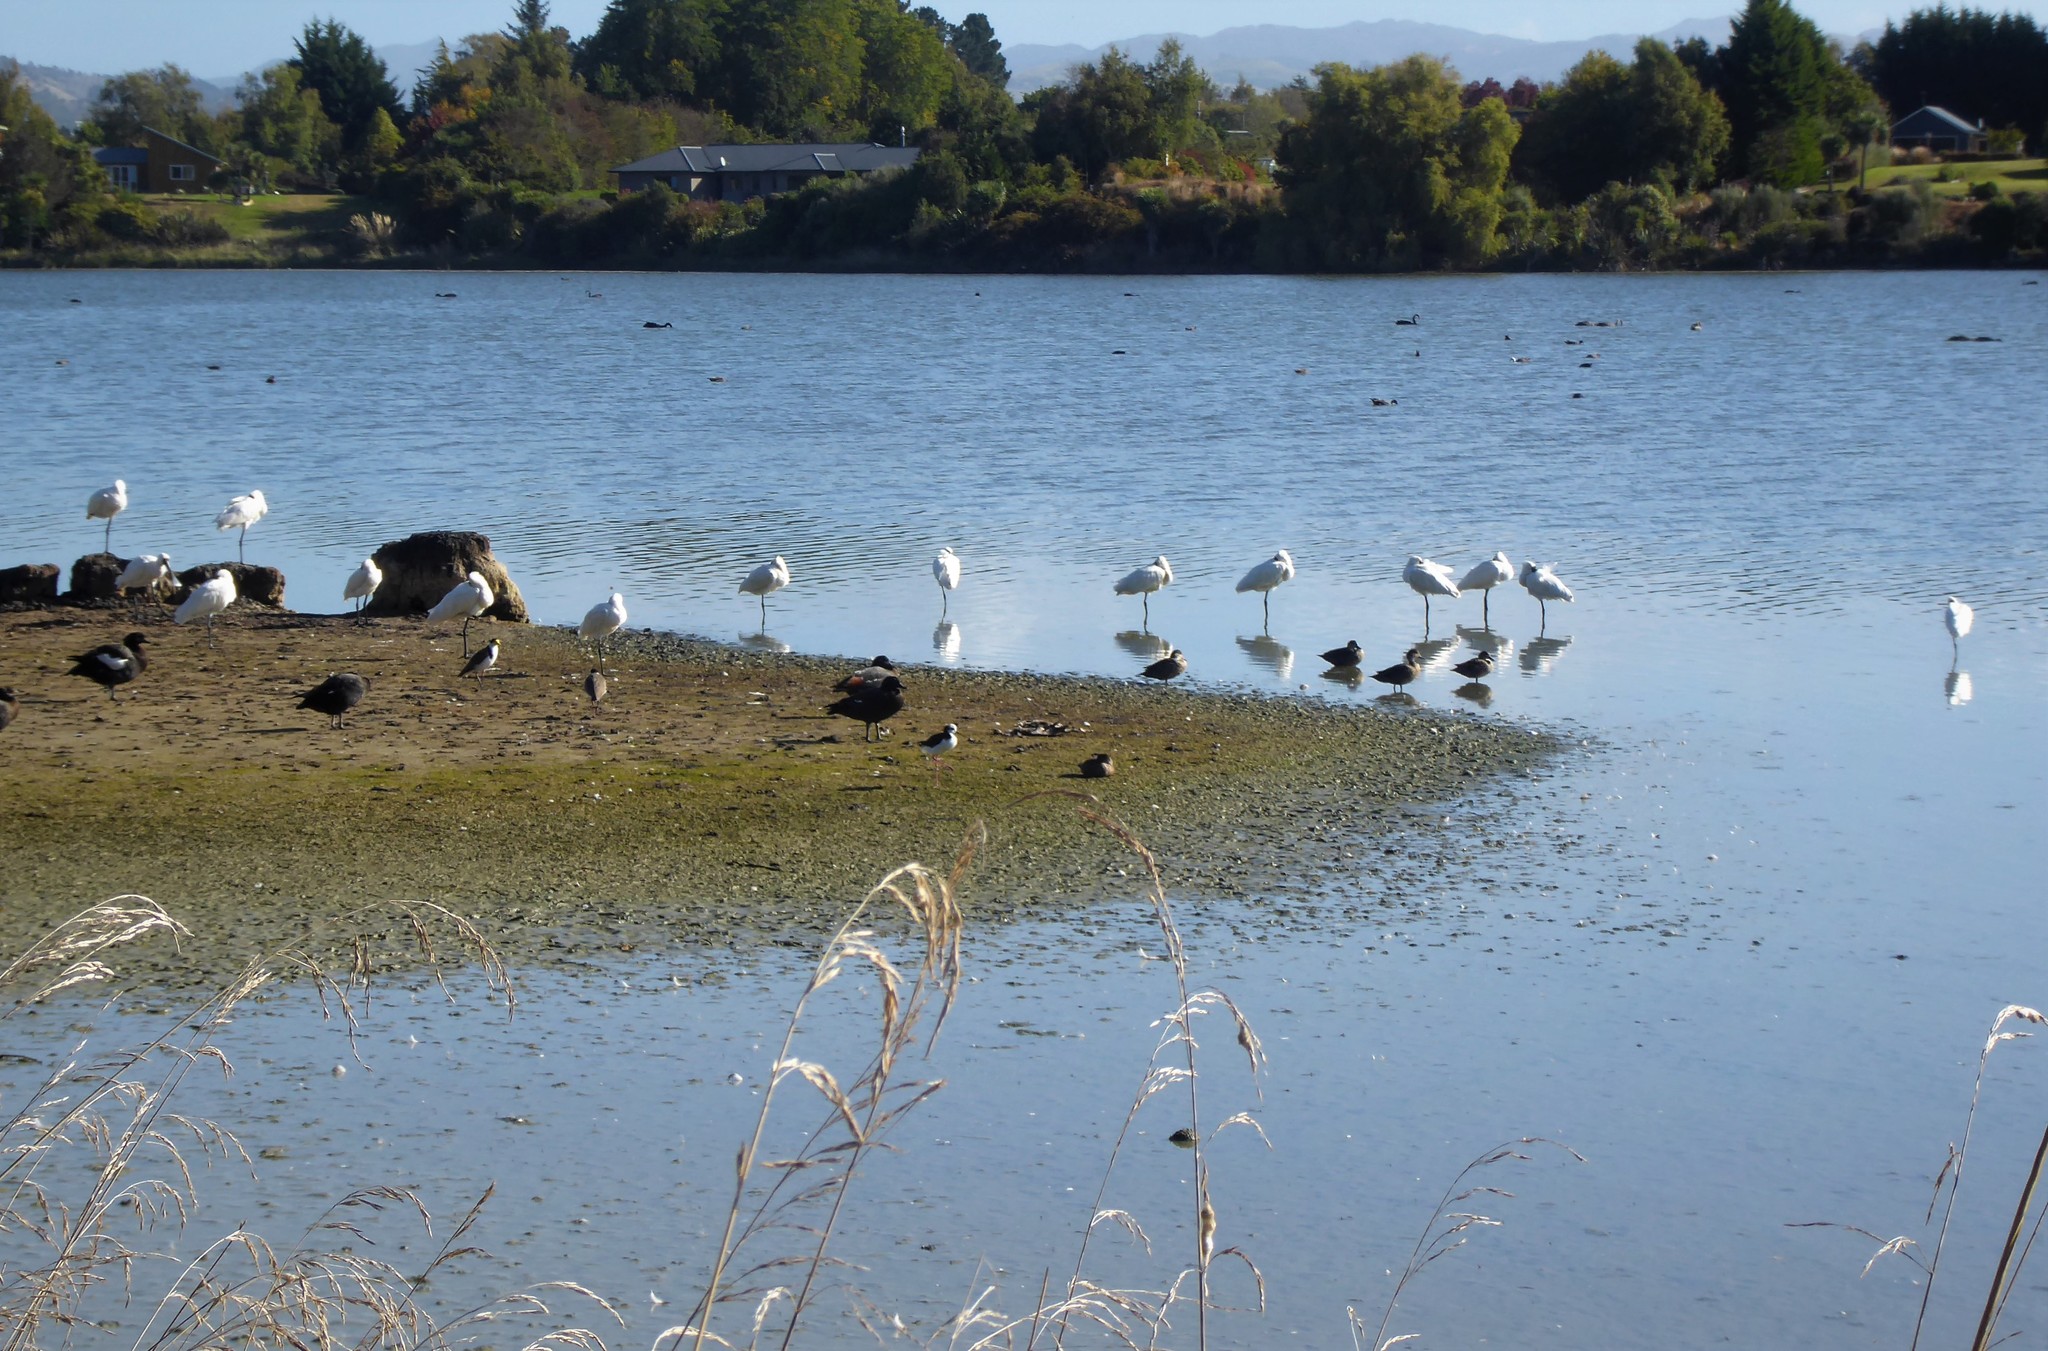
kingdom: Animalia
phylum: Chordata
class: Aves
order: Pelecaniformes
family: Threskiornithidae
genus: Platalea
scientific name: Platalea regia
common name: Royal spoonbill
